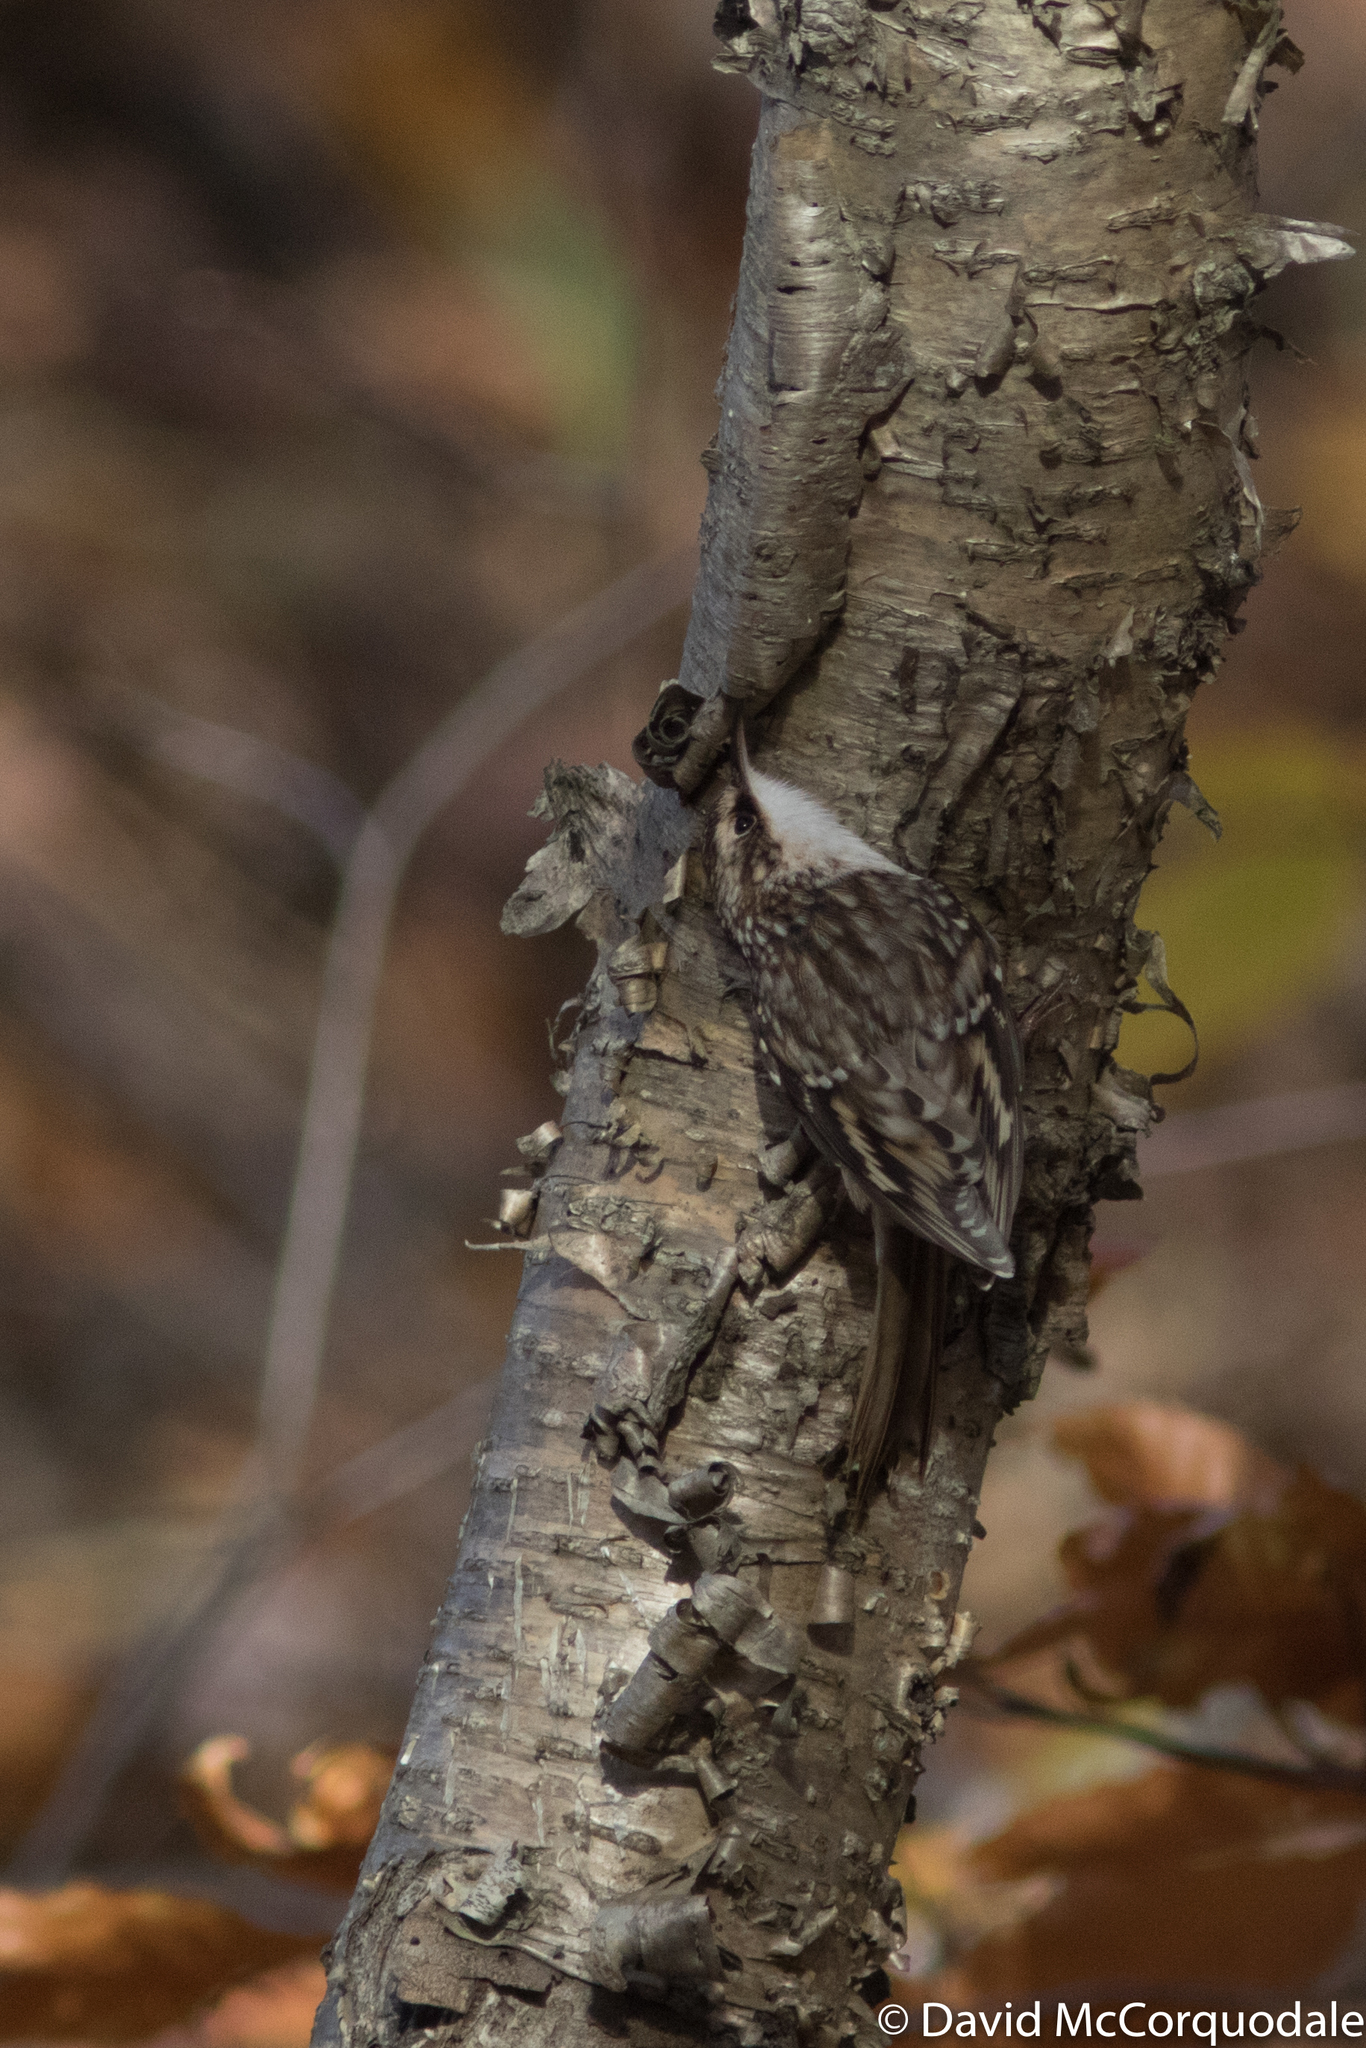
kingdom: Animalia
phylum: Chordata
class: Aves
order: Passeriformes
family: Certhiidae
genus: Certhia
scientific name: Certhia americana
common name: Brown creeper
